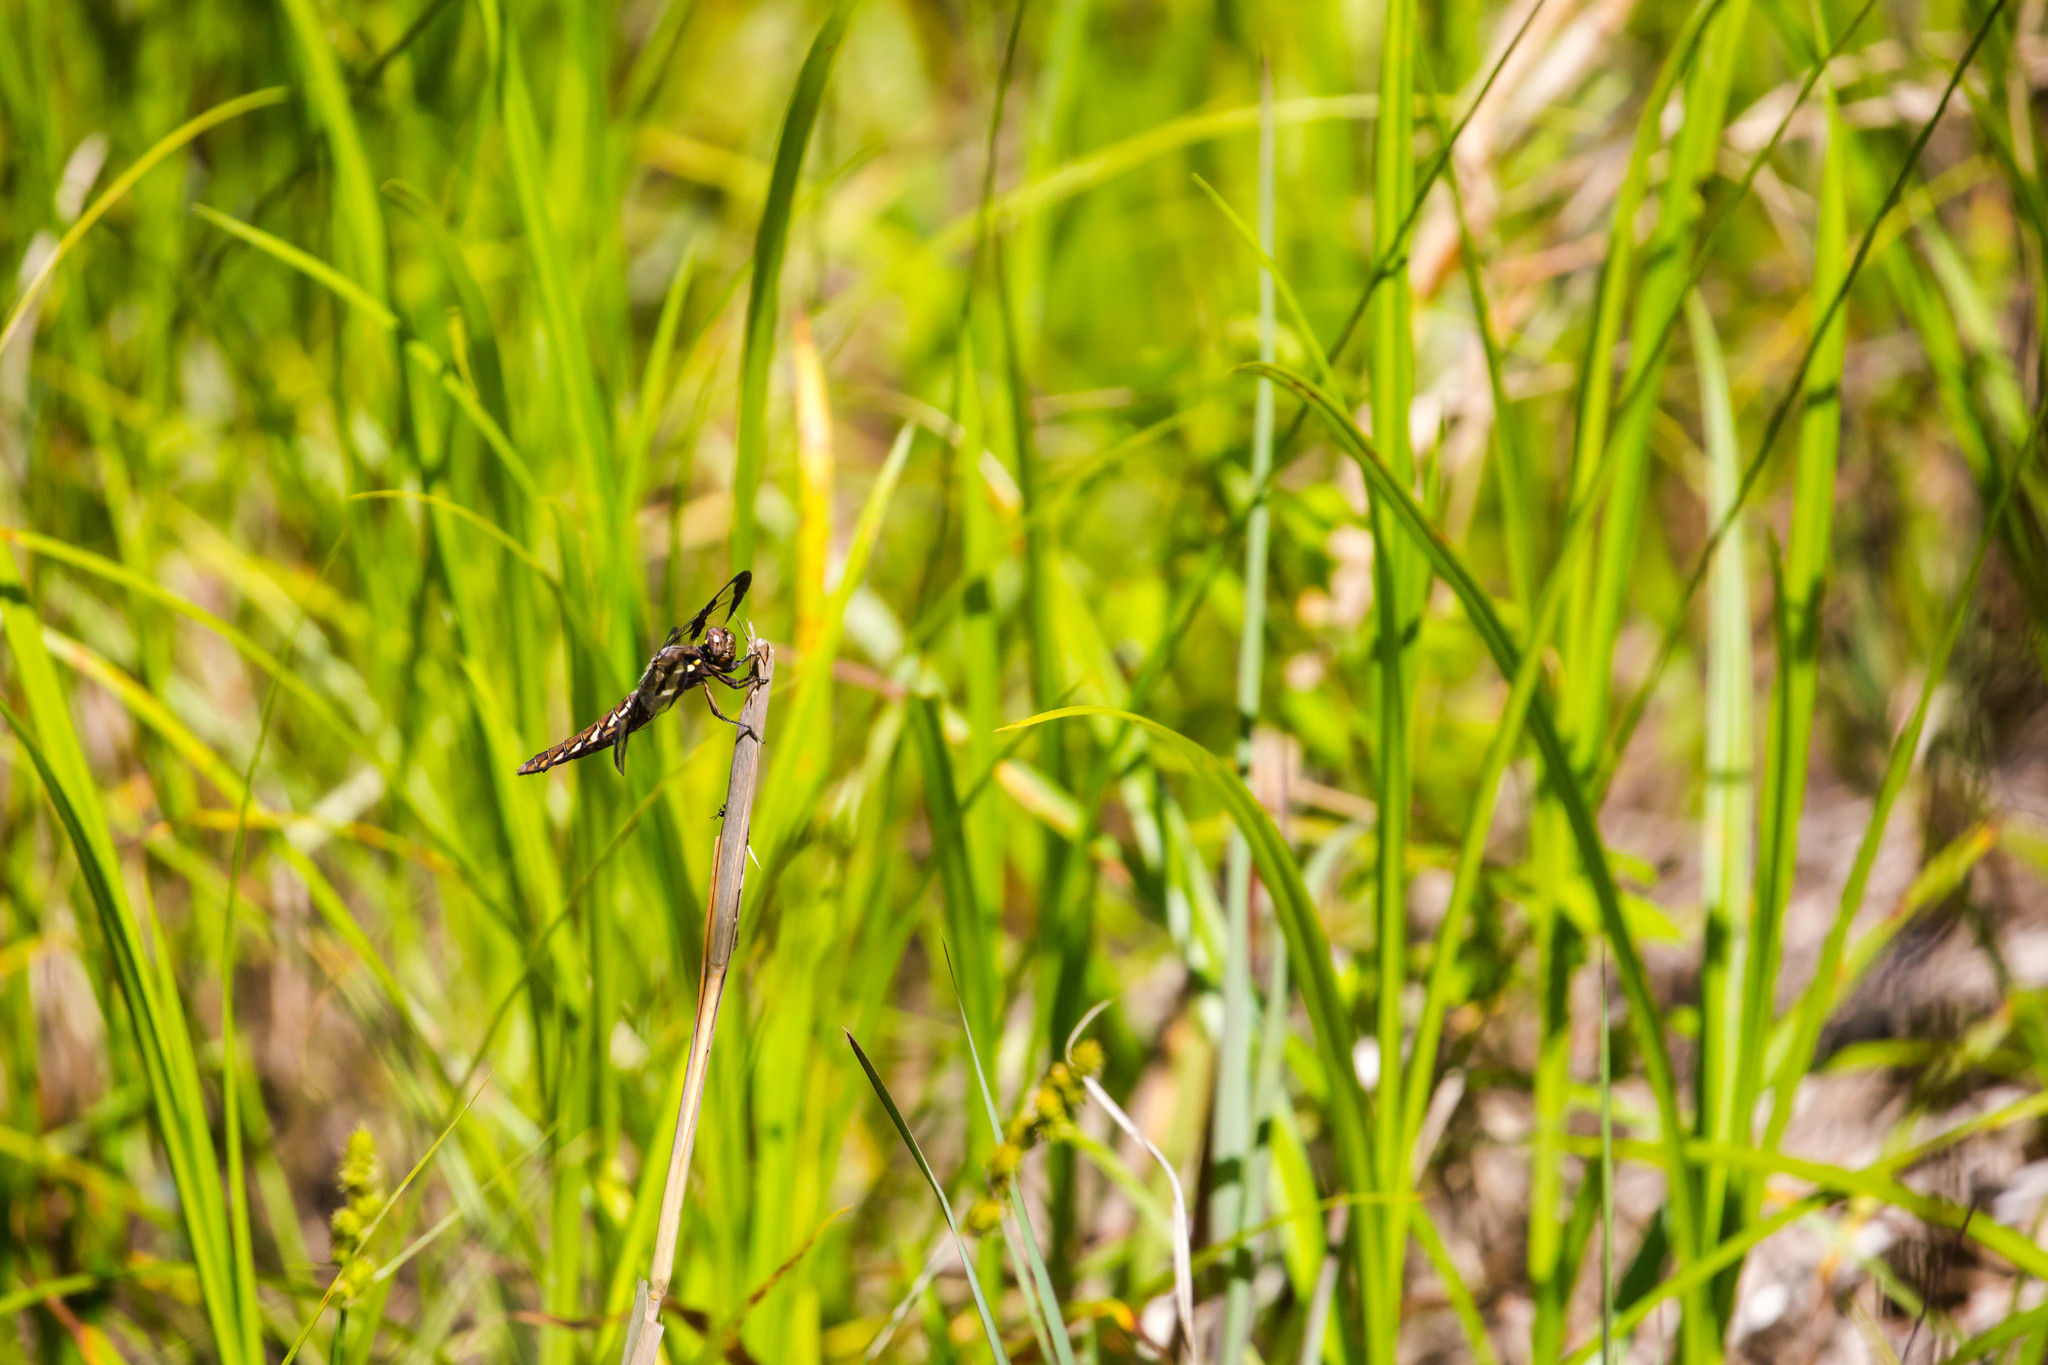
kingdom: Animalia
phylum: Arthropoda
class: Insecta
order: Odonata
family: Libellulidae
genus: Plathemis
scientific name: Plathemis lydia
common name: Common whitetail
